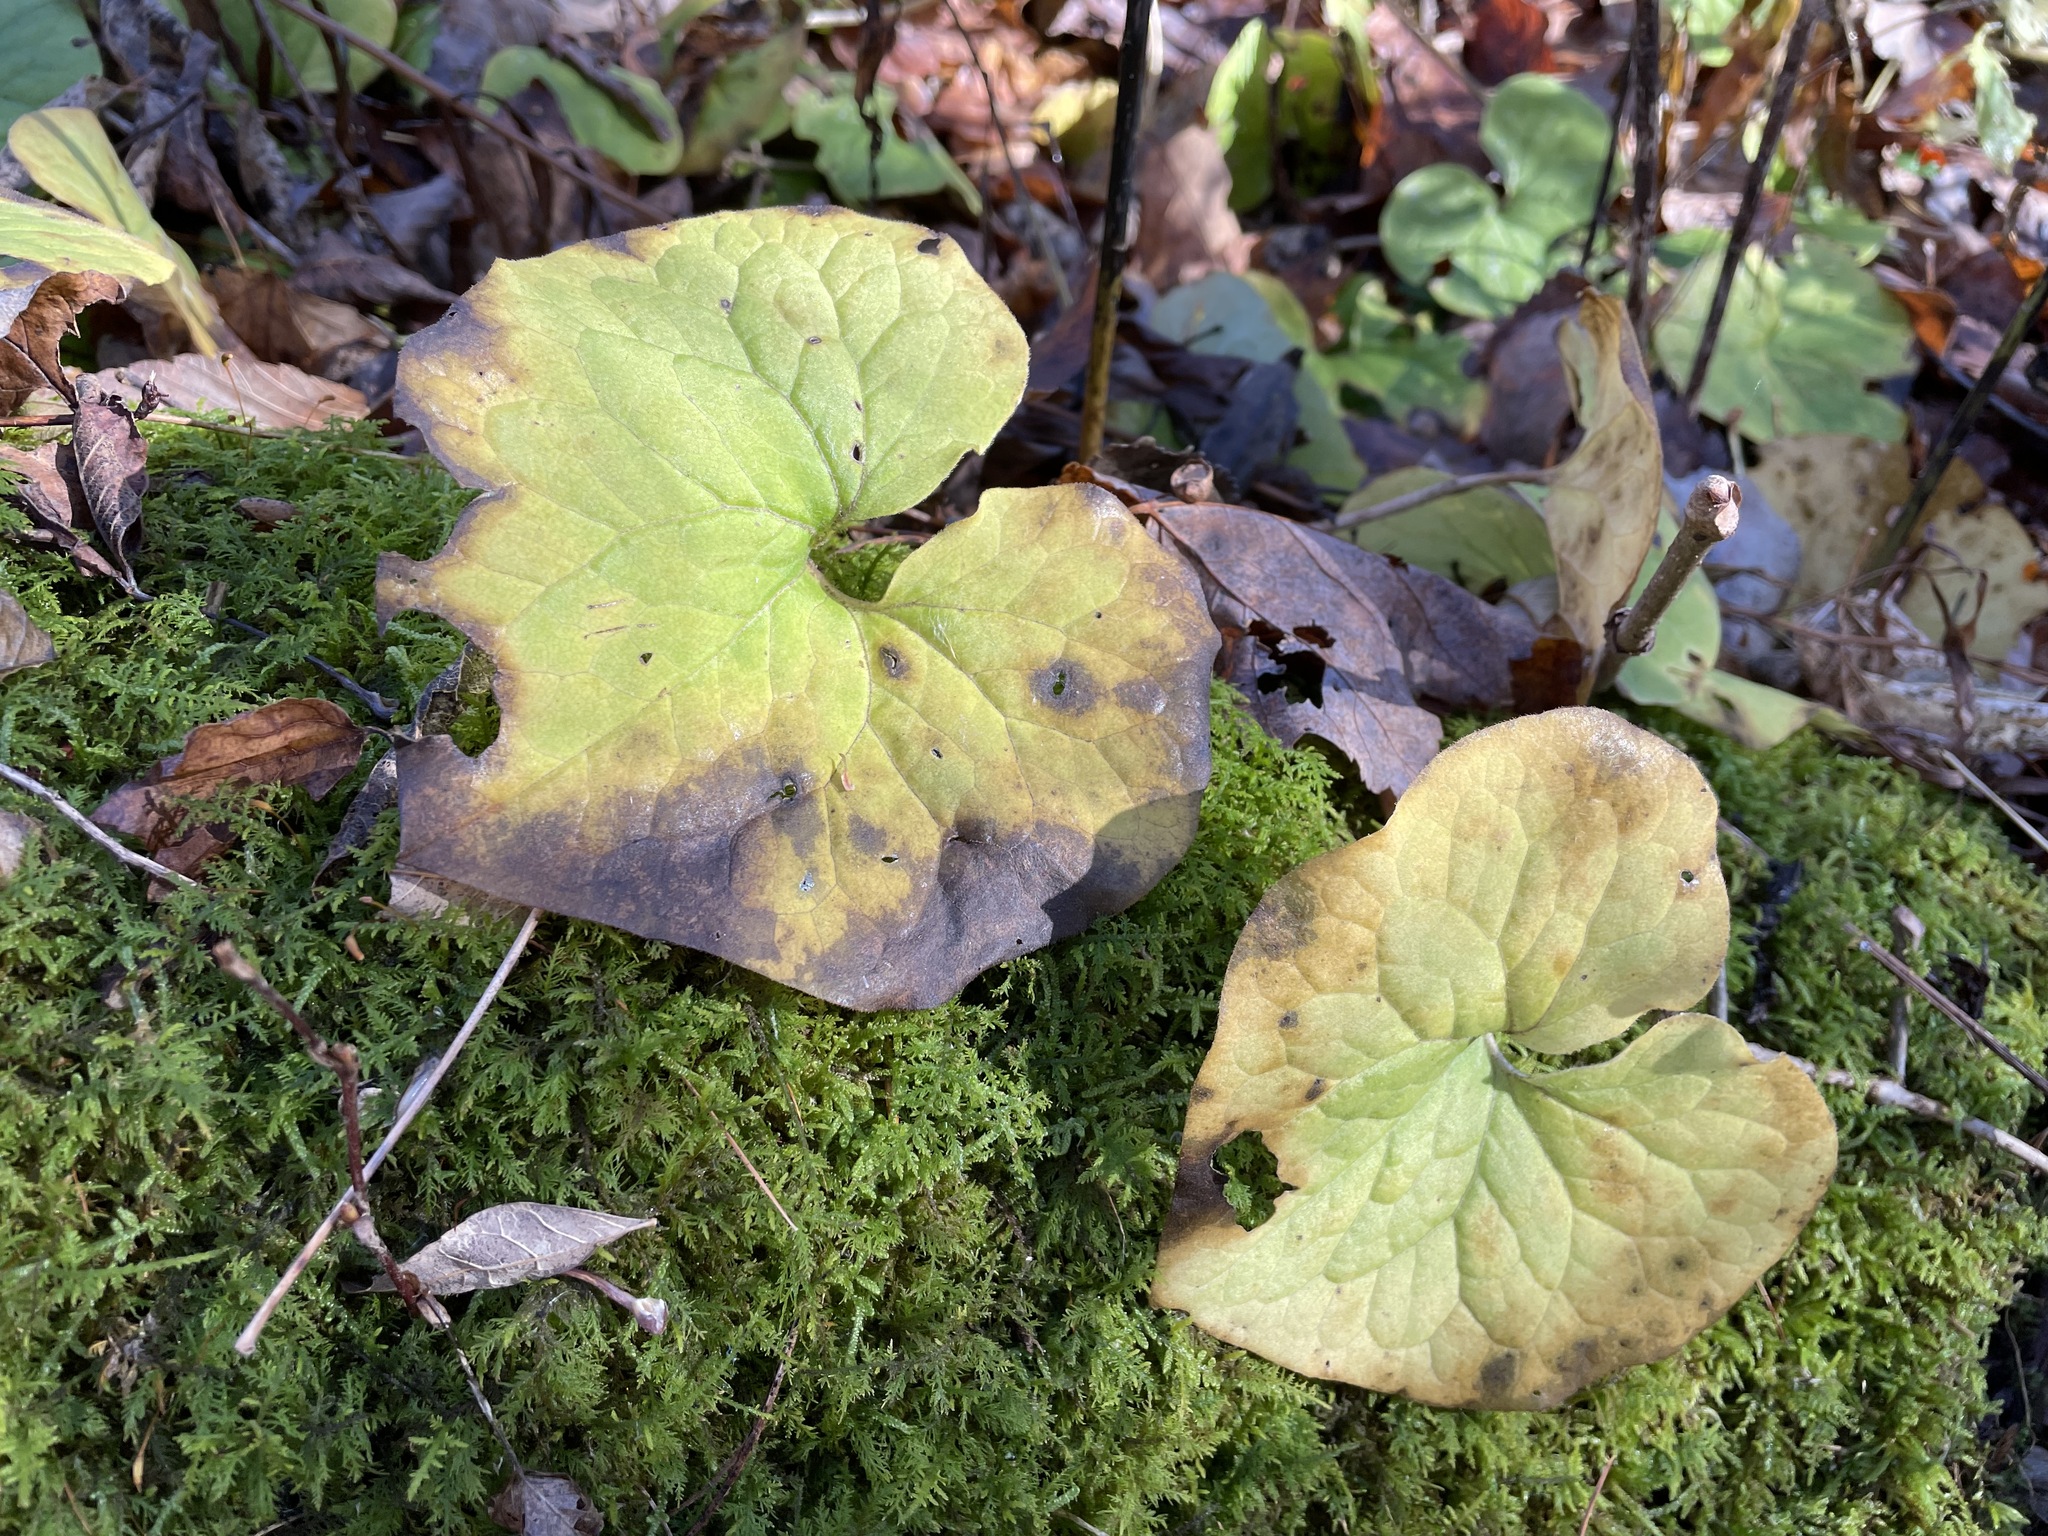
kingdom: Plantae
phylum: Tracheophyta
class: Magnoliopsida
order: Piperales
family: Aristolochiaceae
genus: Asarum
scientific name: Asarum canadense
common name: Wild ginger
